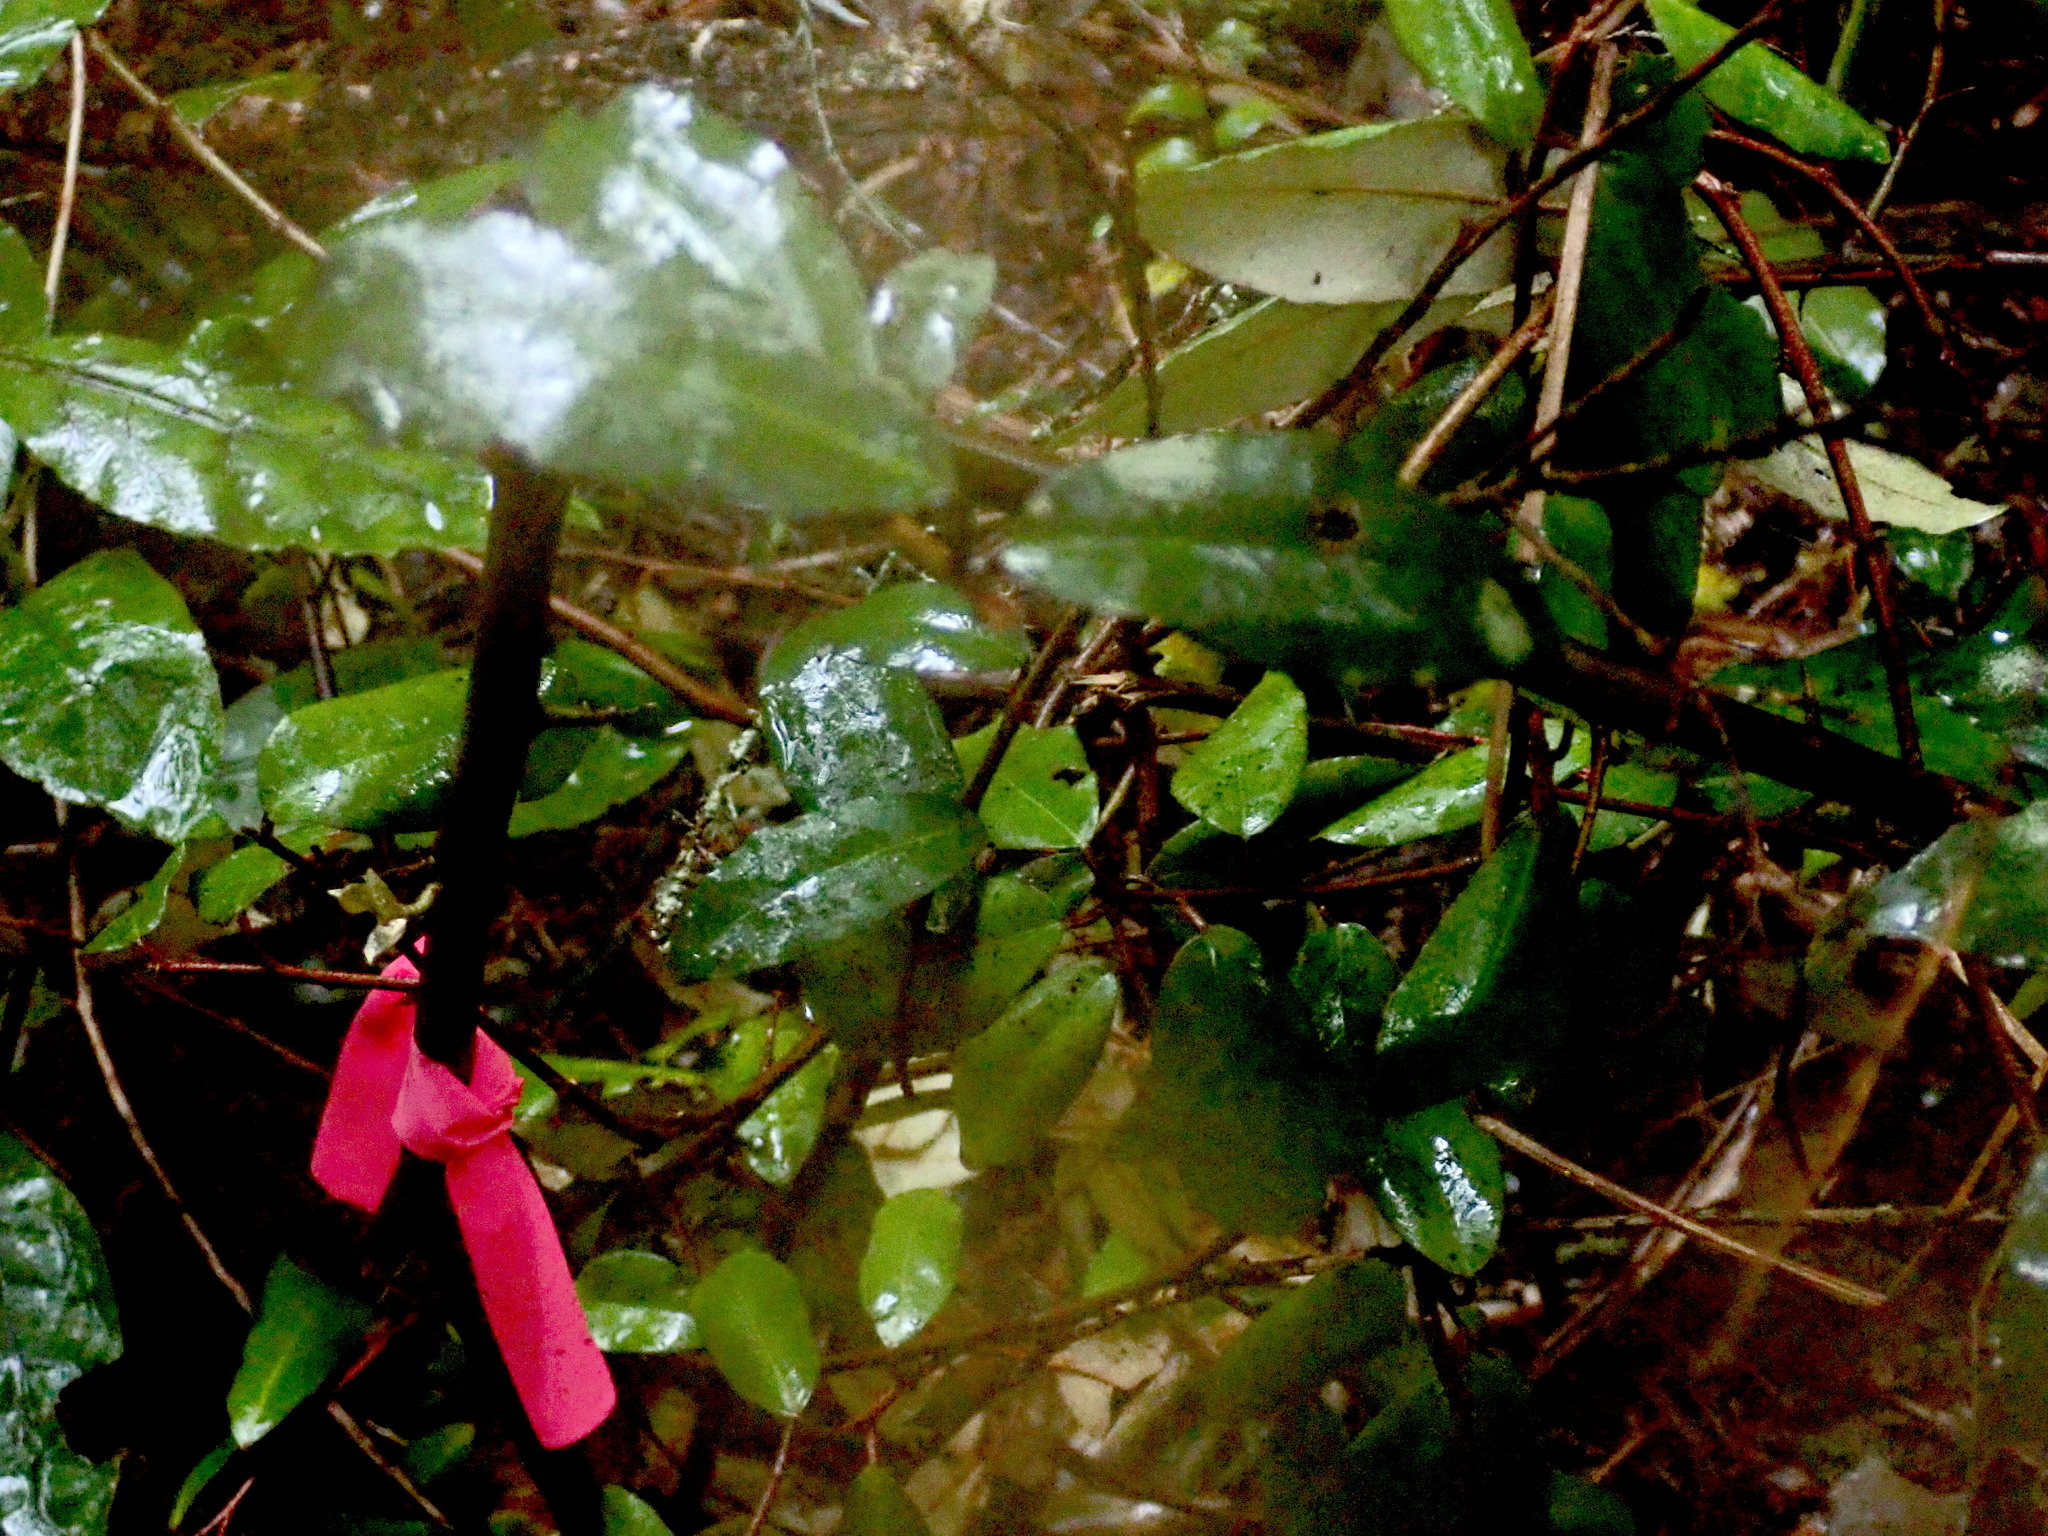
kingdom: Plantae
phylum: Tracheophyta
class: Magnoliopsida
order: Rosales
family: Elaeagnaceae
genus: Elaeagnus
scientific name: Elaeagnus reflexa
